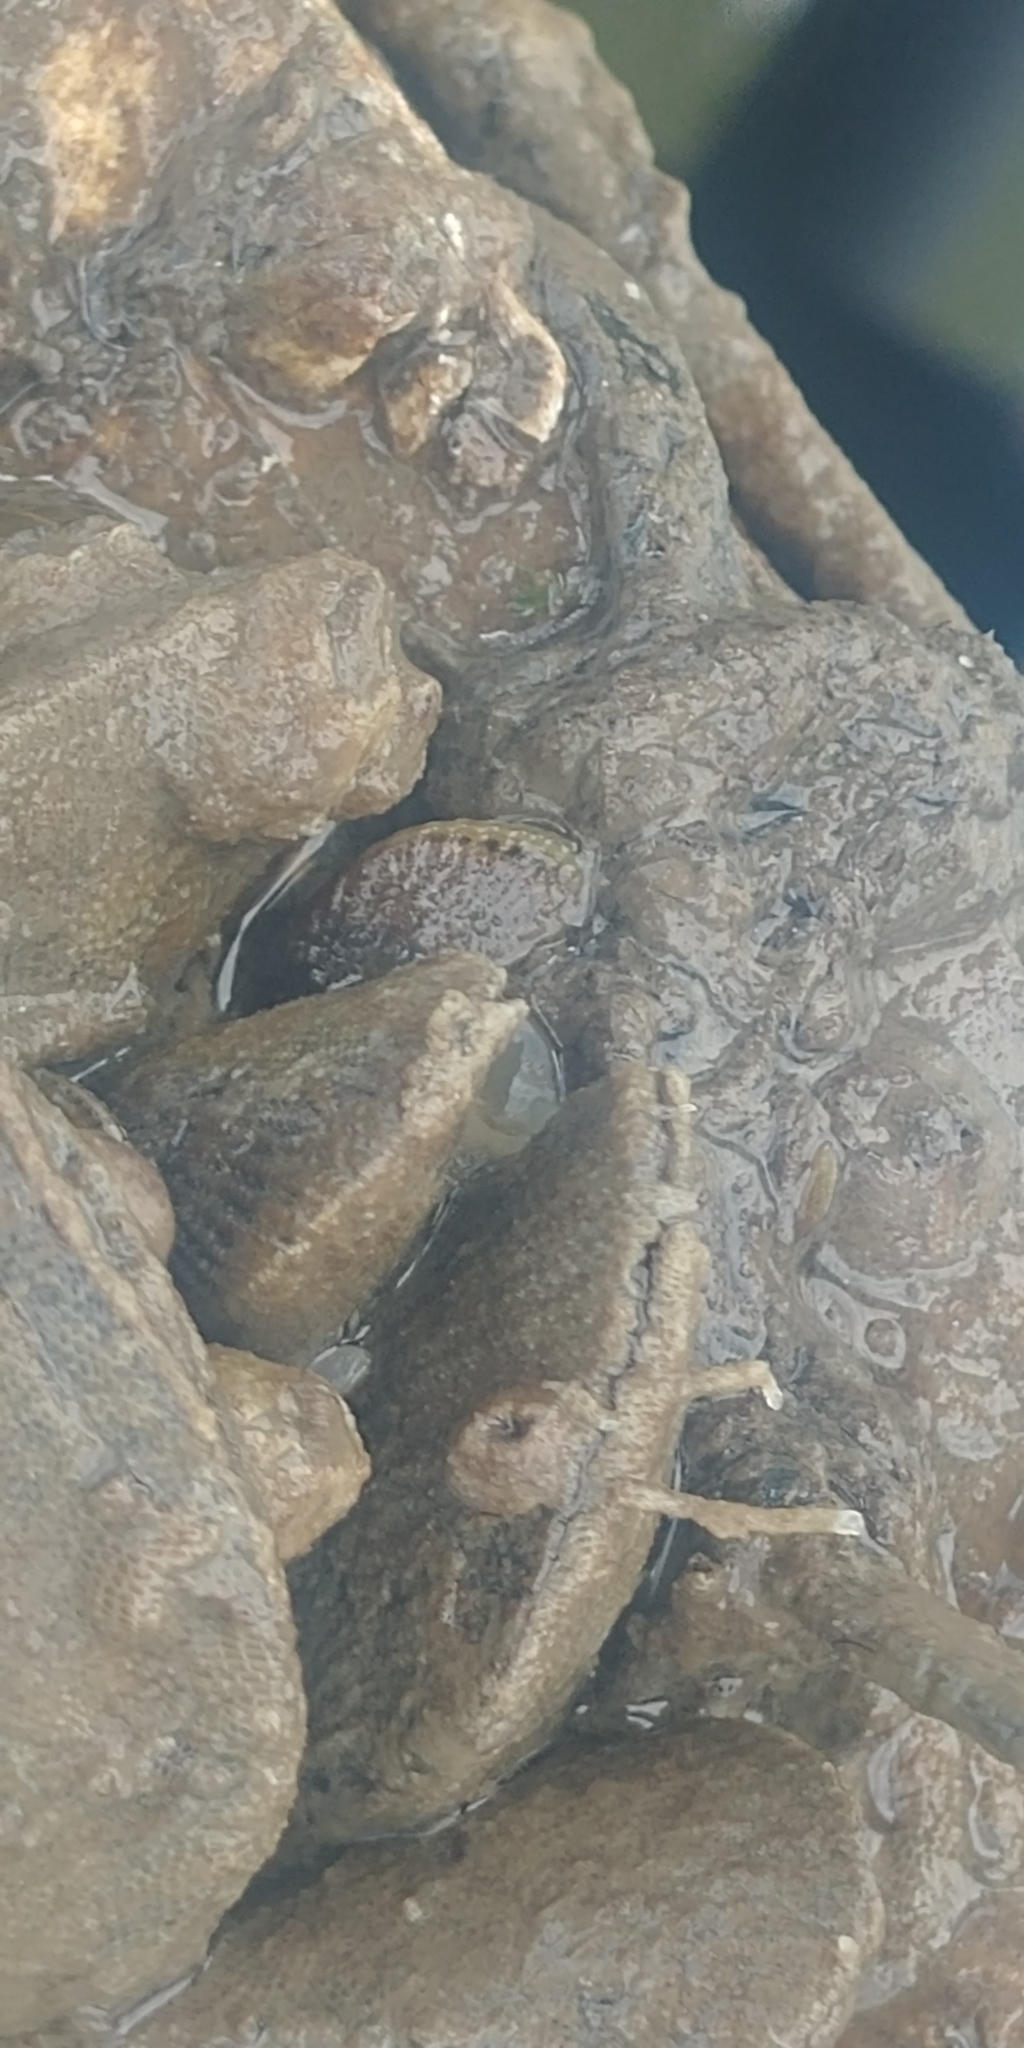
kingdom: Animalia
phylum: Mollusca
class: Bivalvia
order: Mytilida
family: Mytilidae
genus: Geukensia
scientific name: Geukensia demissa
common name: Ribbed mussel
